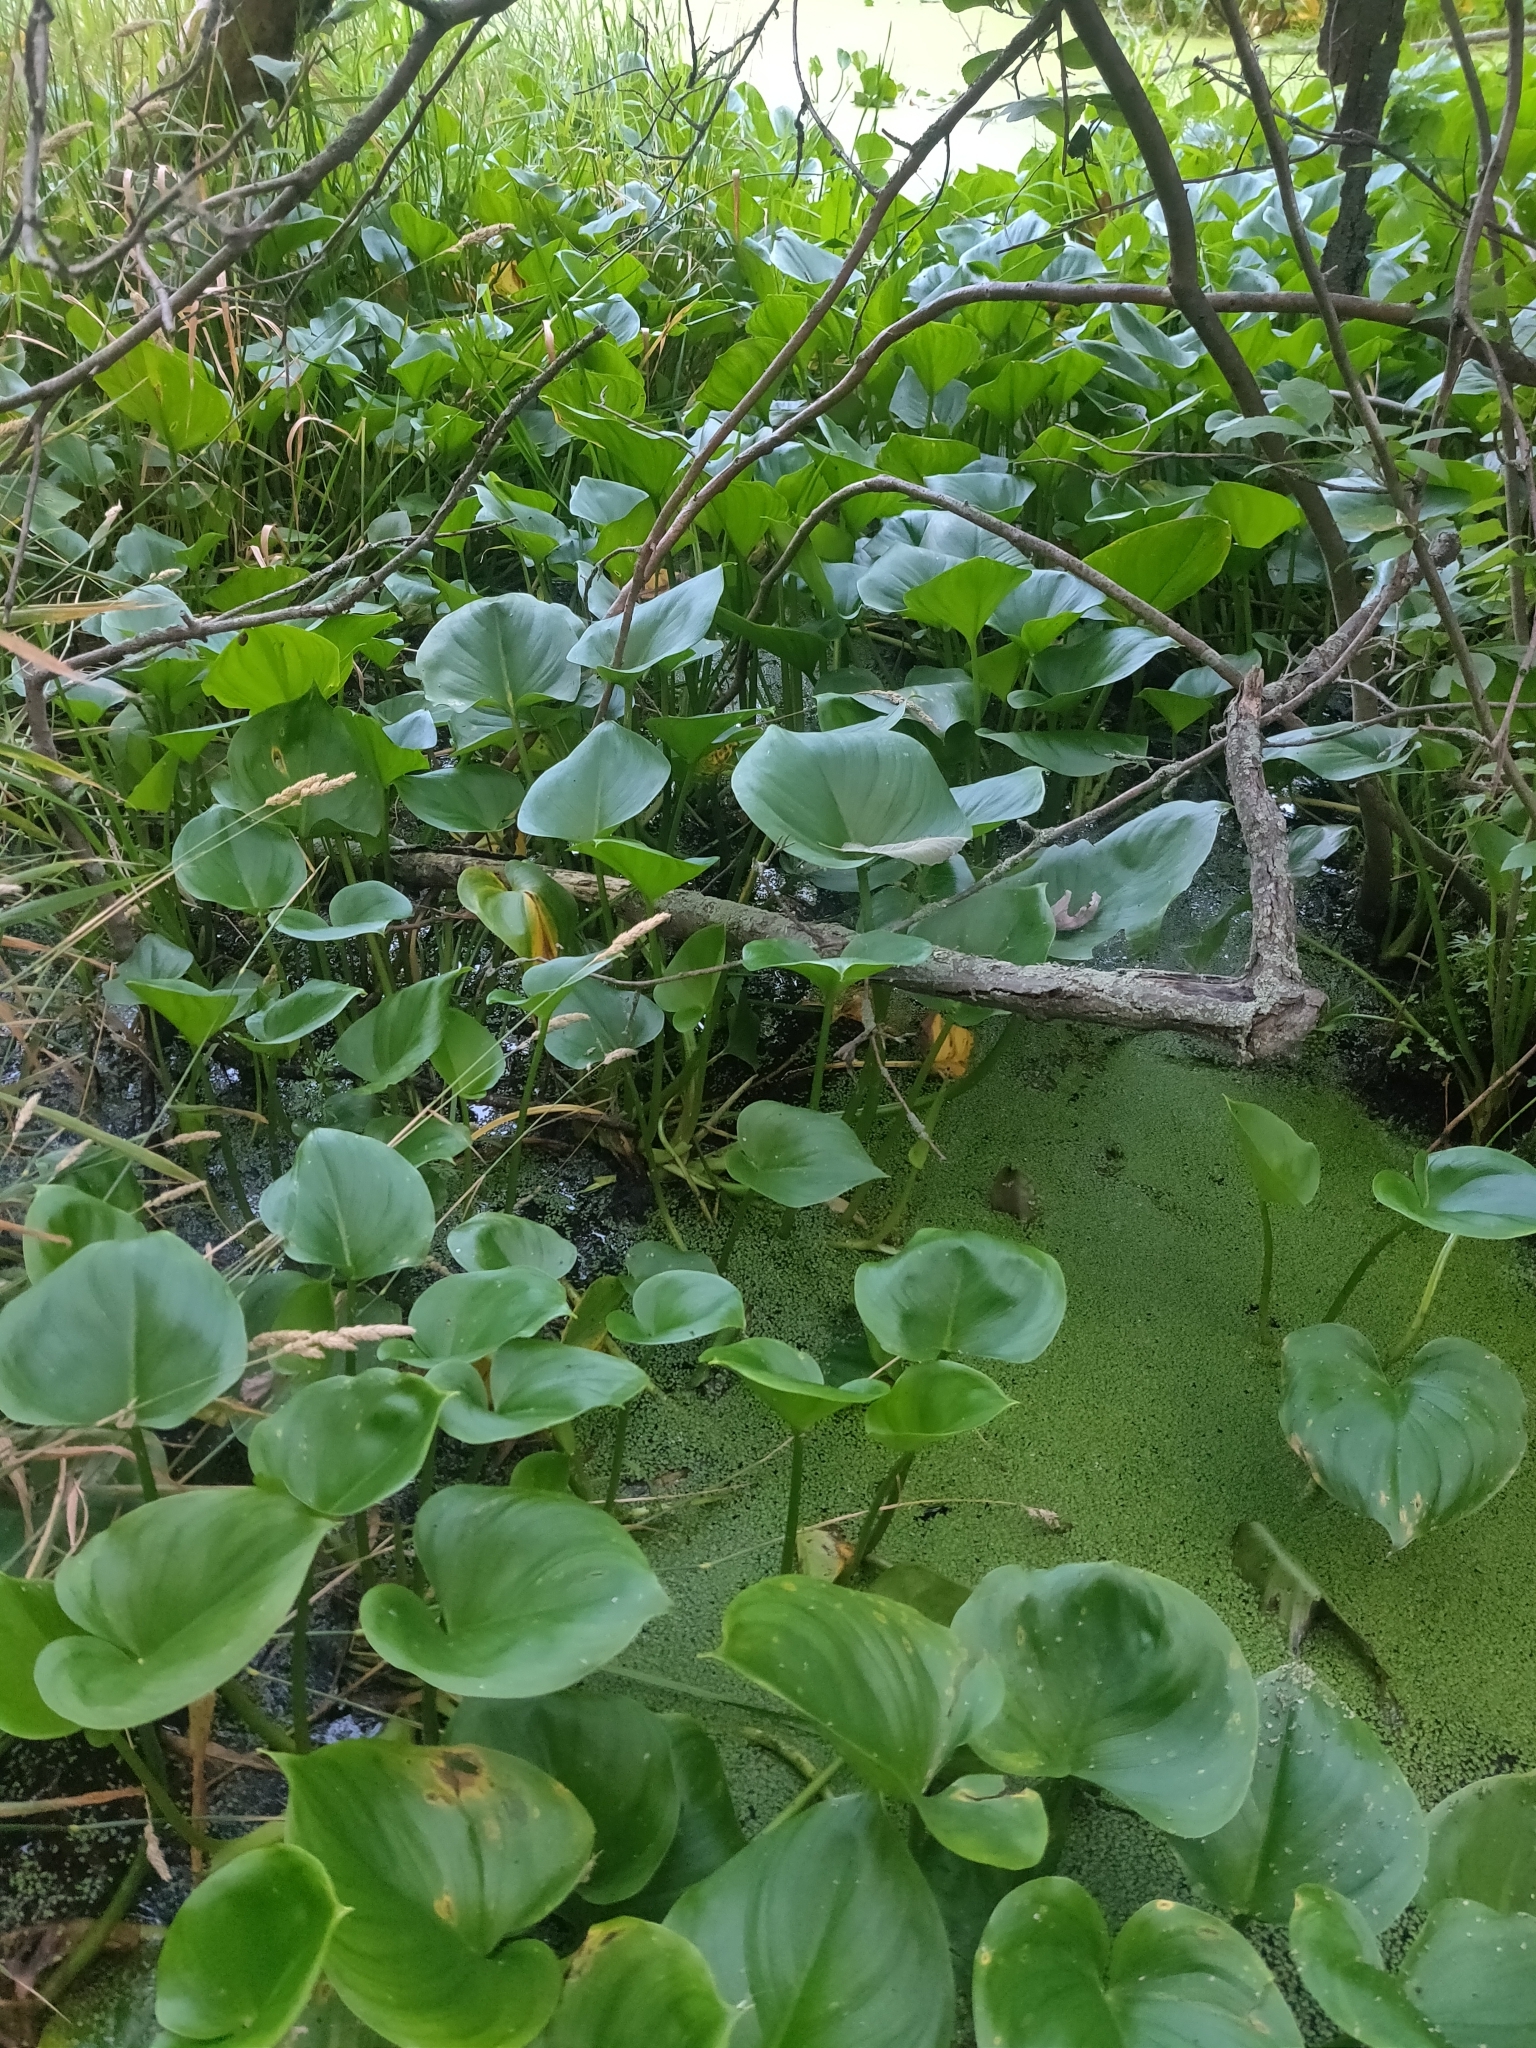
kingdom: Plantae
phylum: Tracheophyta
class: Liliopsida
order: Alismatales
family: Araceae
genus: Calla
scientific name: Calla palustris
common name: Bog arum
